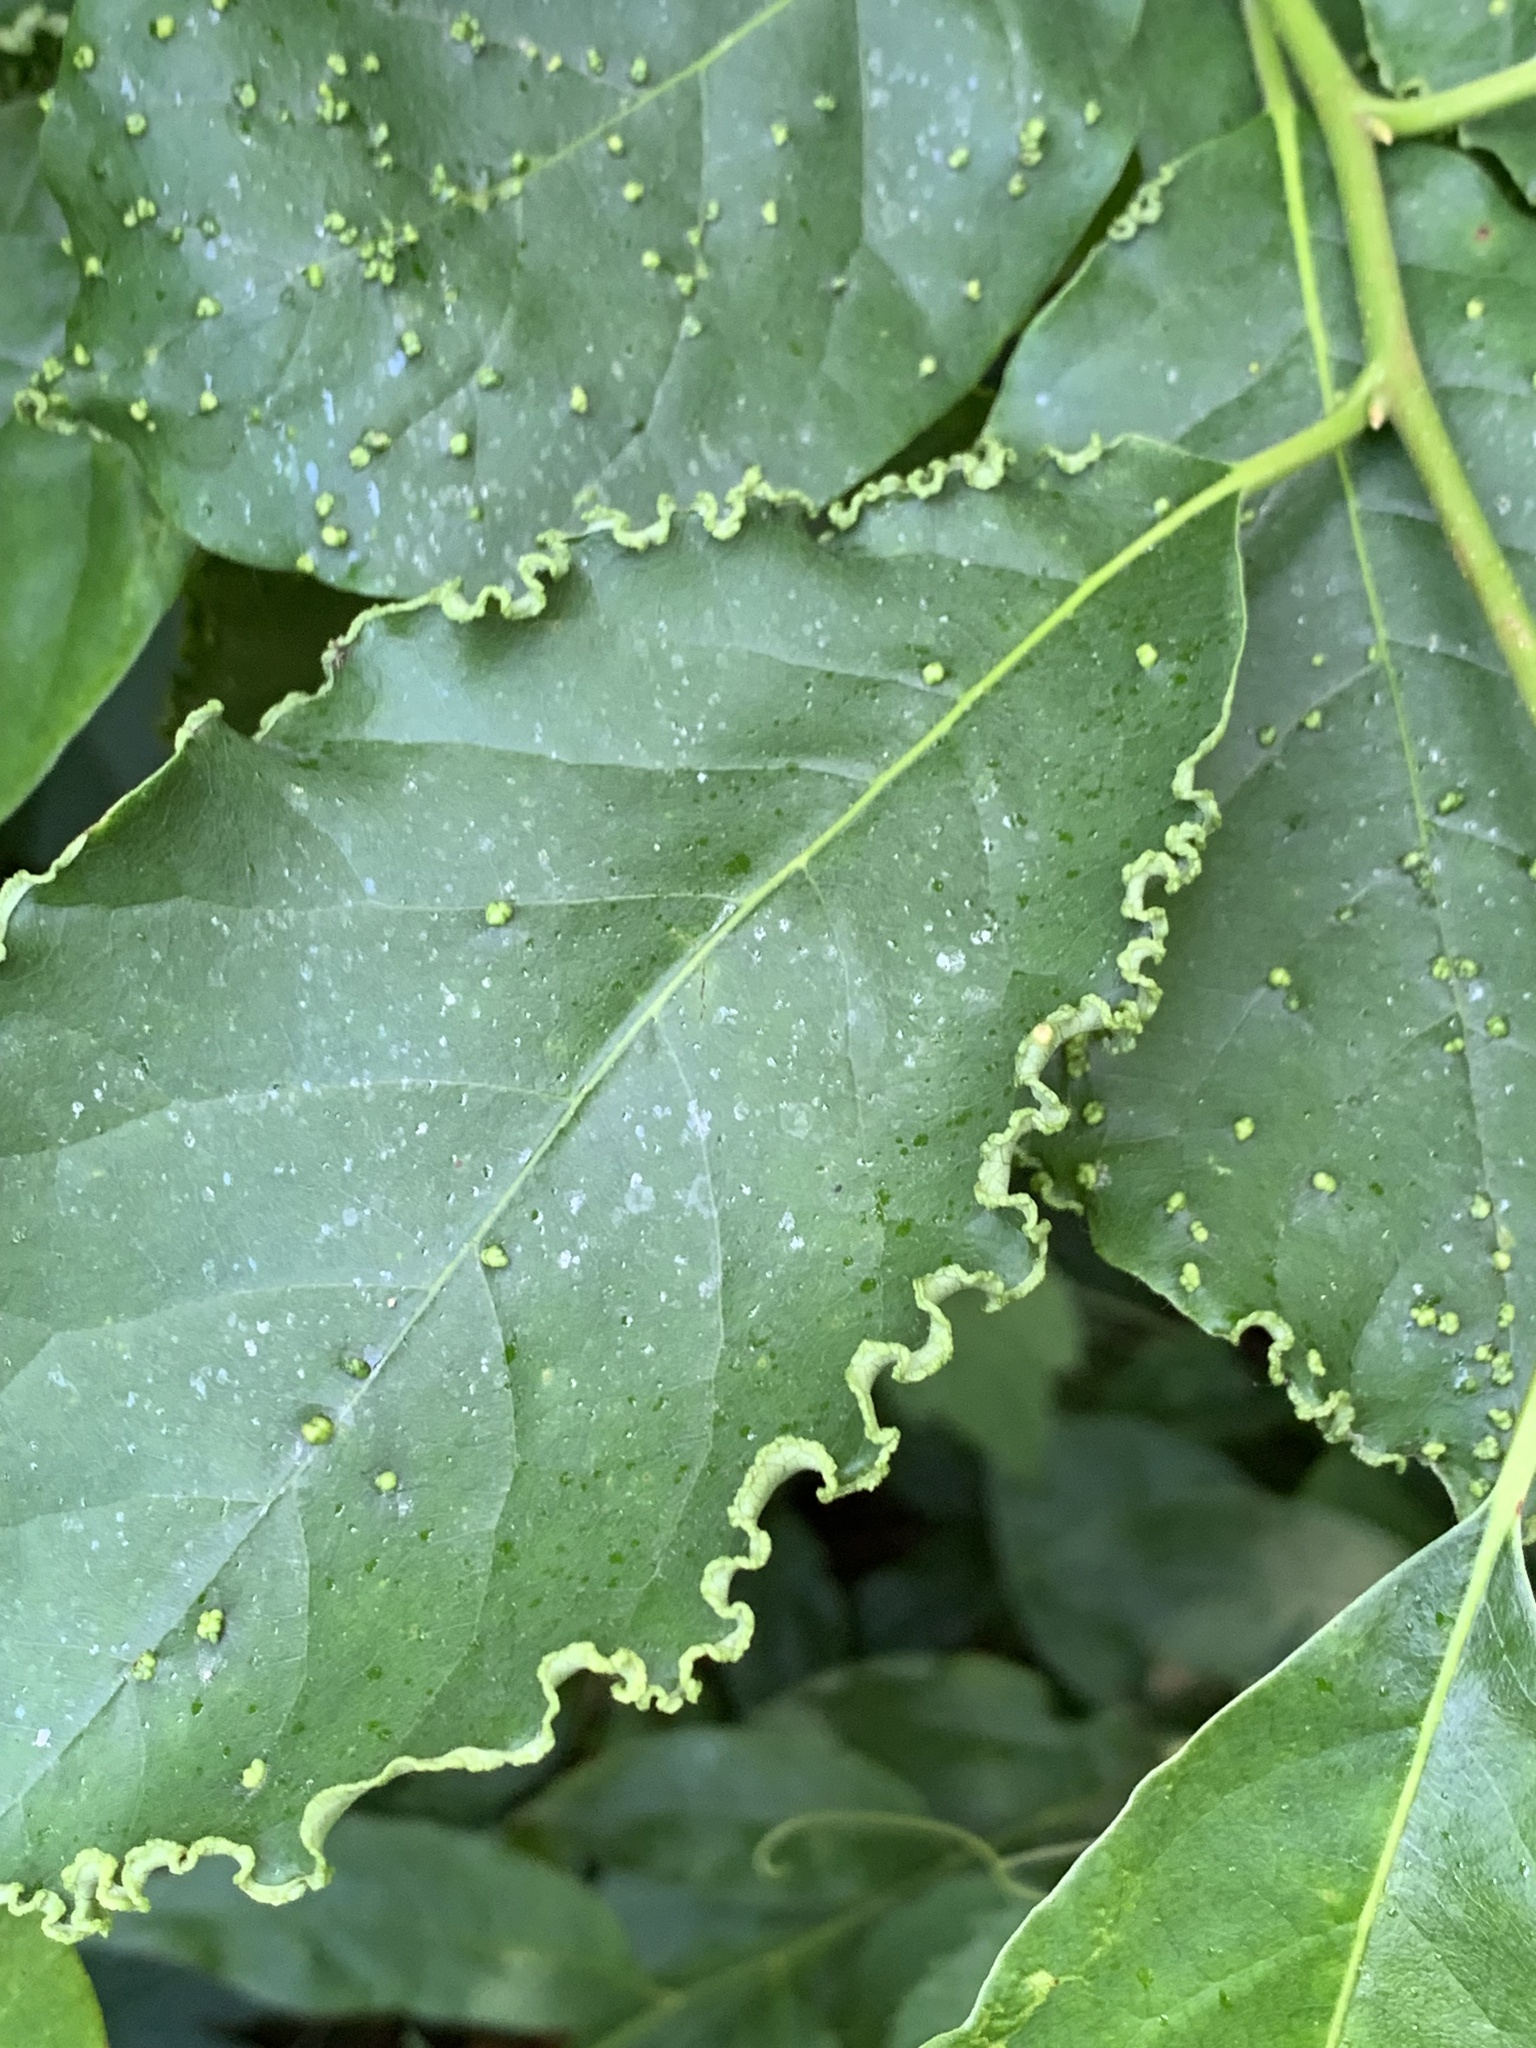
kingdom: Animalia
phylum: Arthropoda
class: Arachnida
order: Trombidiformes
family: Eriophyidae
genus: Aceria
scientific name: Aceria
